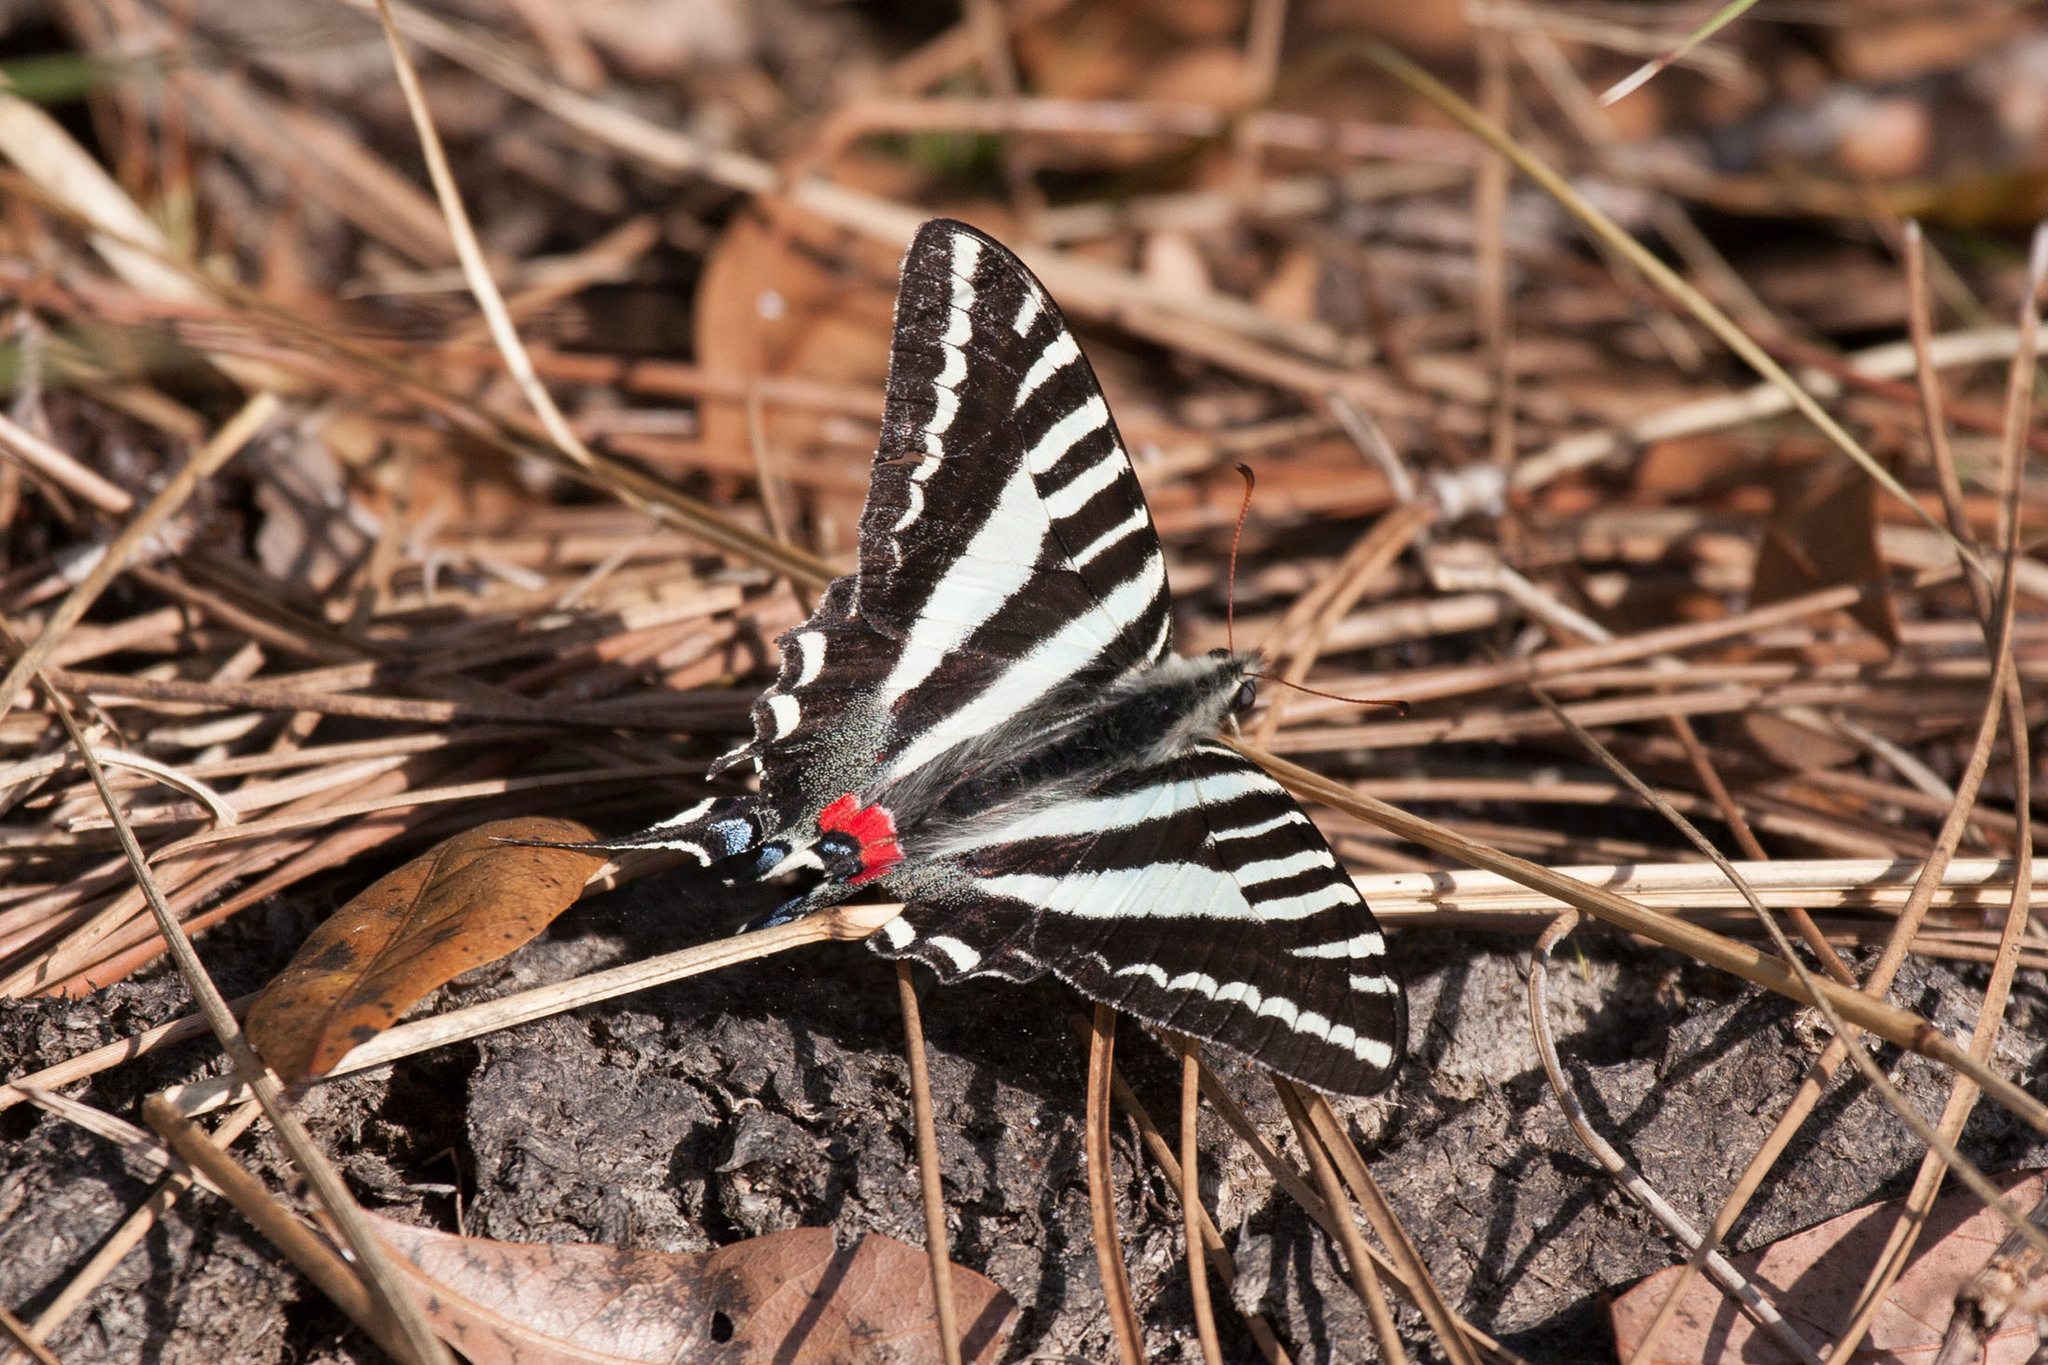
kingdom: Animalia
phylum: Arthropoda
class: Insecta
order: Lepidoptera
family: Papilionidae
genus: Protographium
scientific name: Protographium marcellus
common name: Zebra swallowtail
